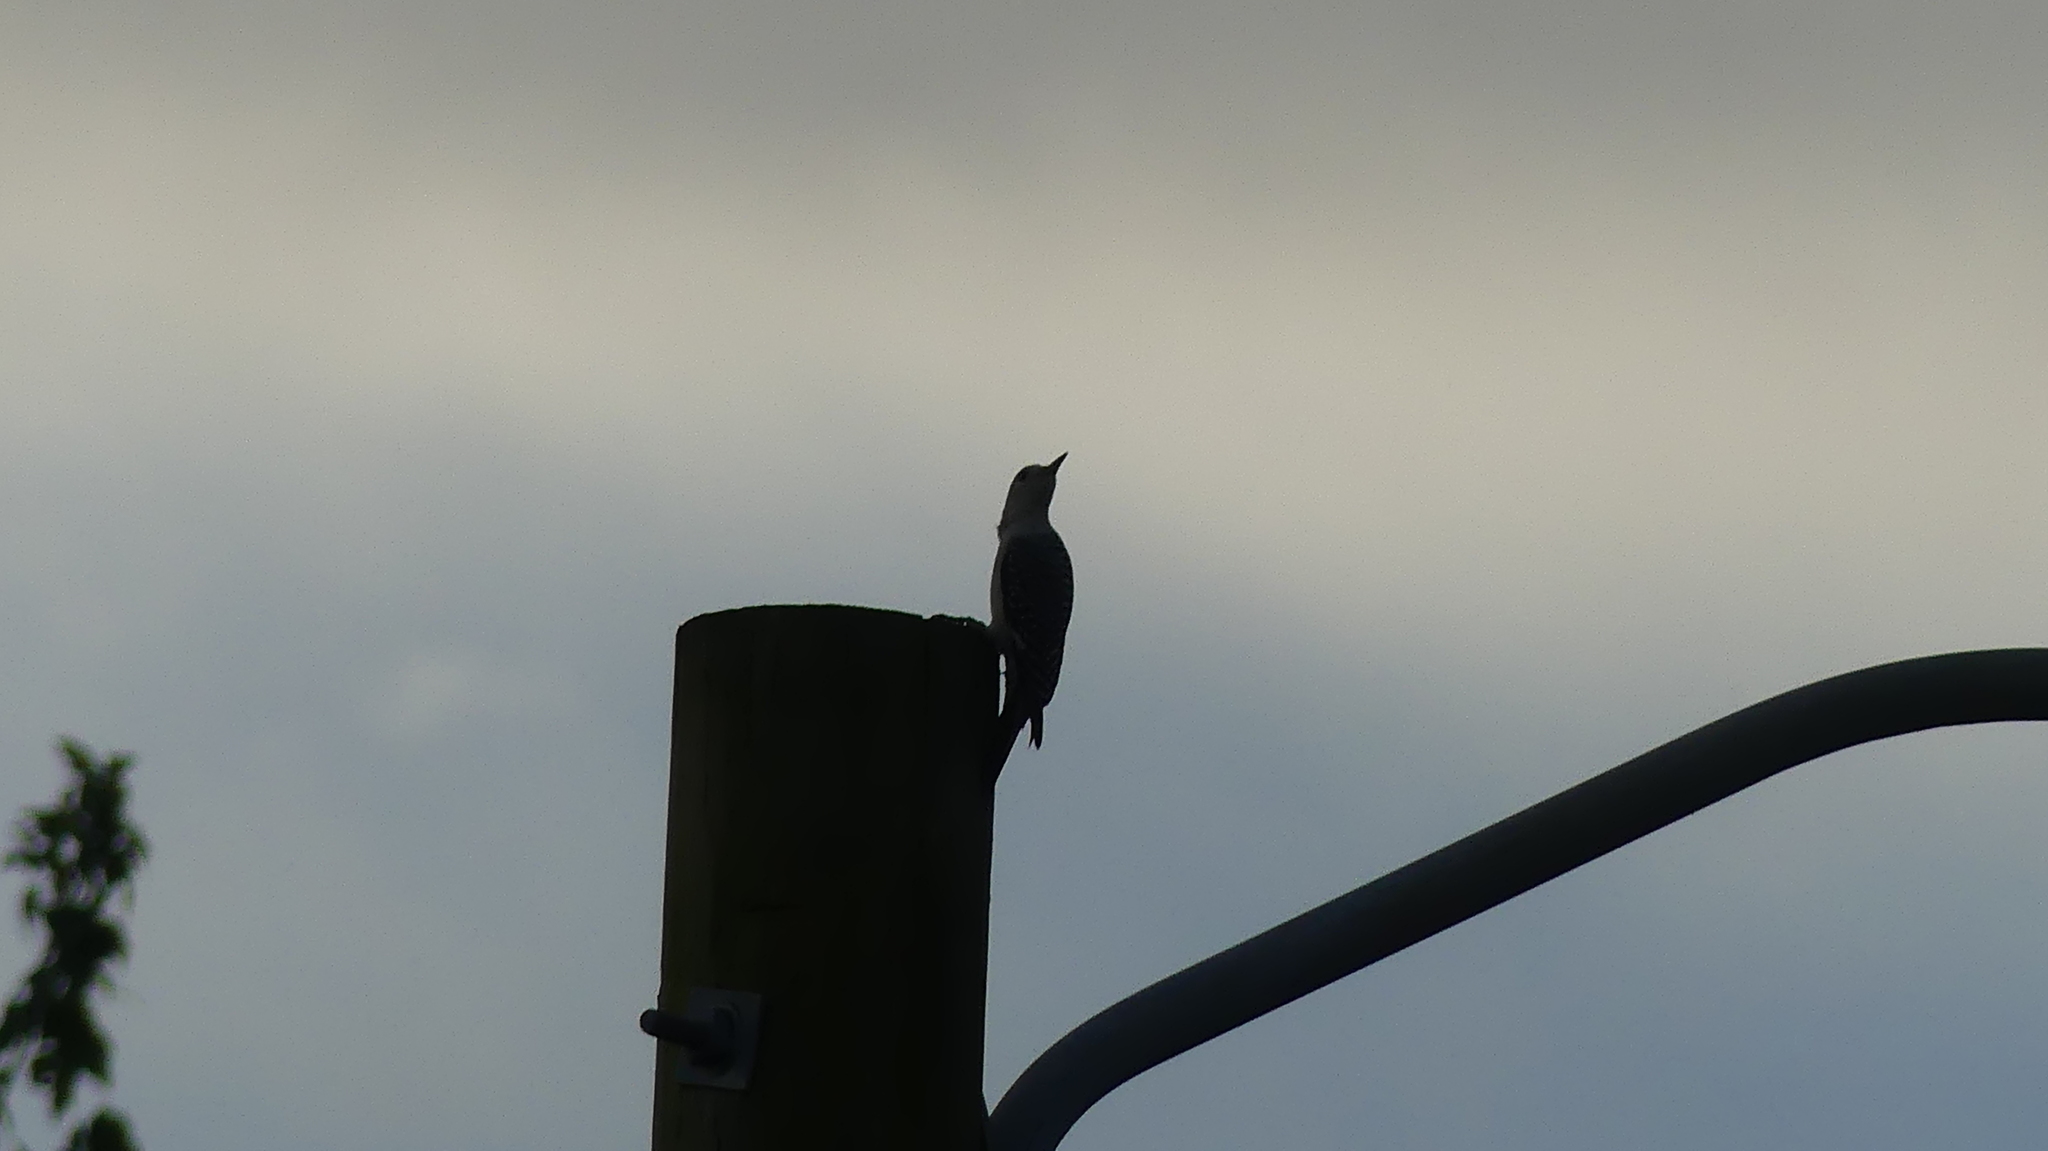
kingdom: Animalia
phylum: Chordata
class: Aves
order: Piciformes
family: Picidae
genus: Melanerpes
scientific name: Melanerpes carolinus
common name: Red-bellied woodpecker
